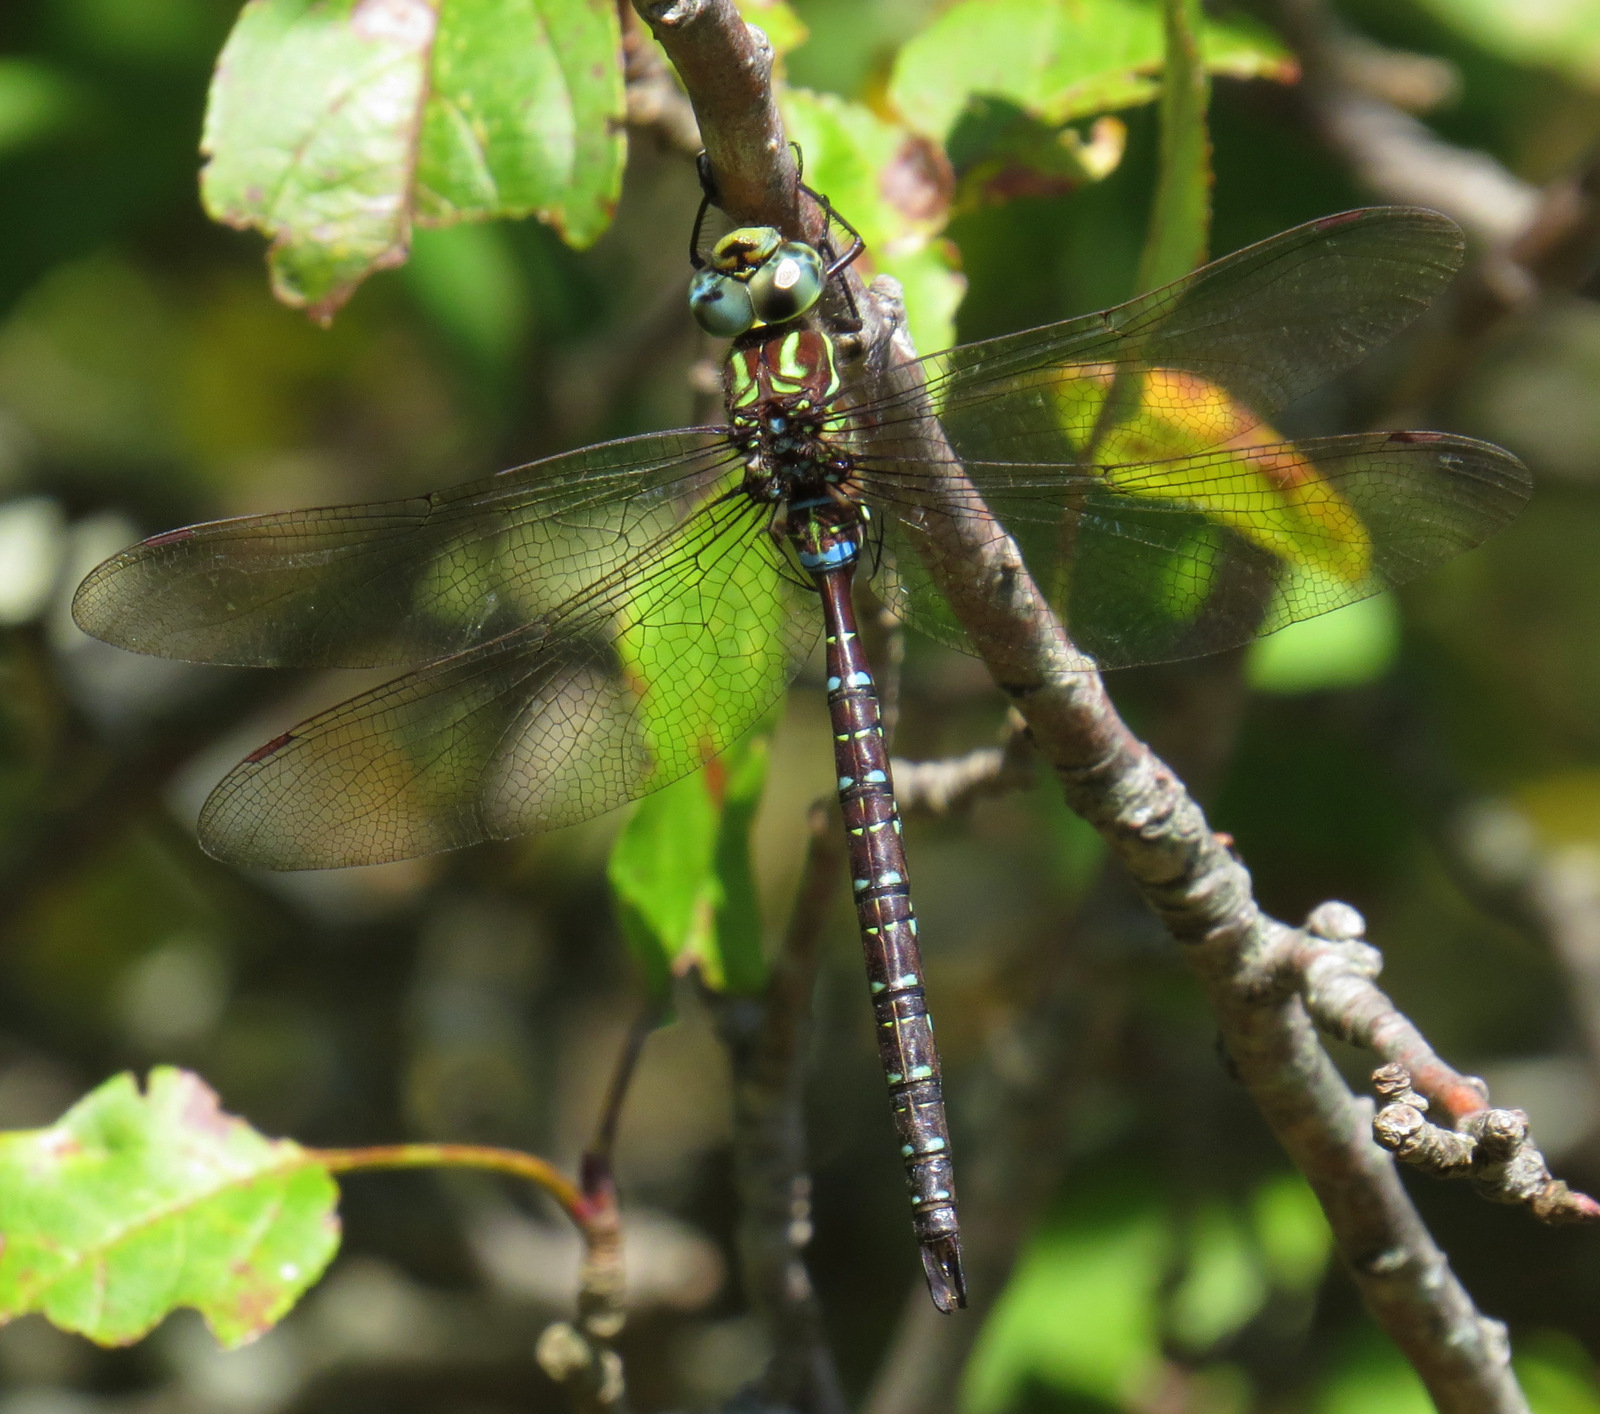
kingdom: Animalia
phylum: Arthropoda
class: Insecta
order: Odonata
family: Aeshnidae
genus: Aeshna
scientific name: Aeshna umbrosa
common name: Shadow darner
